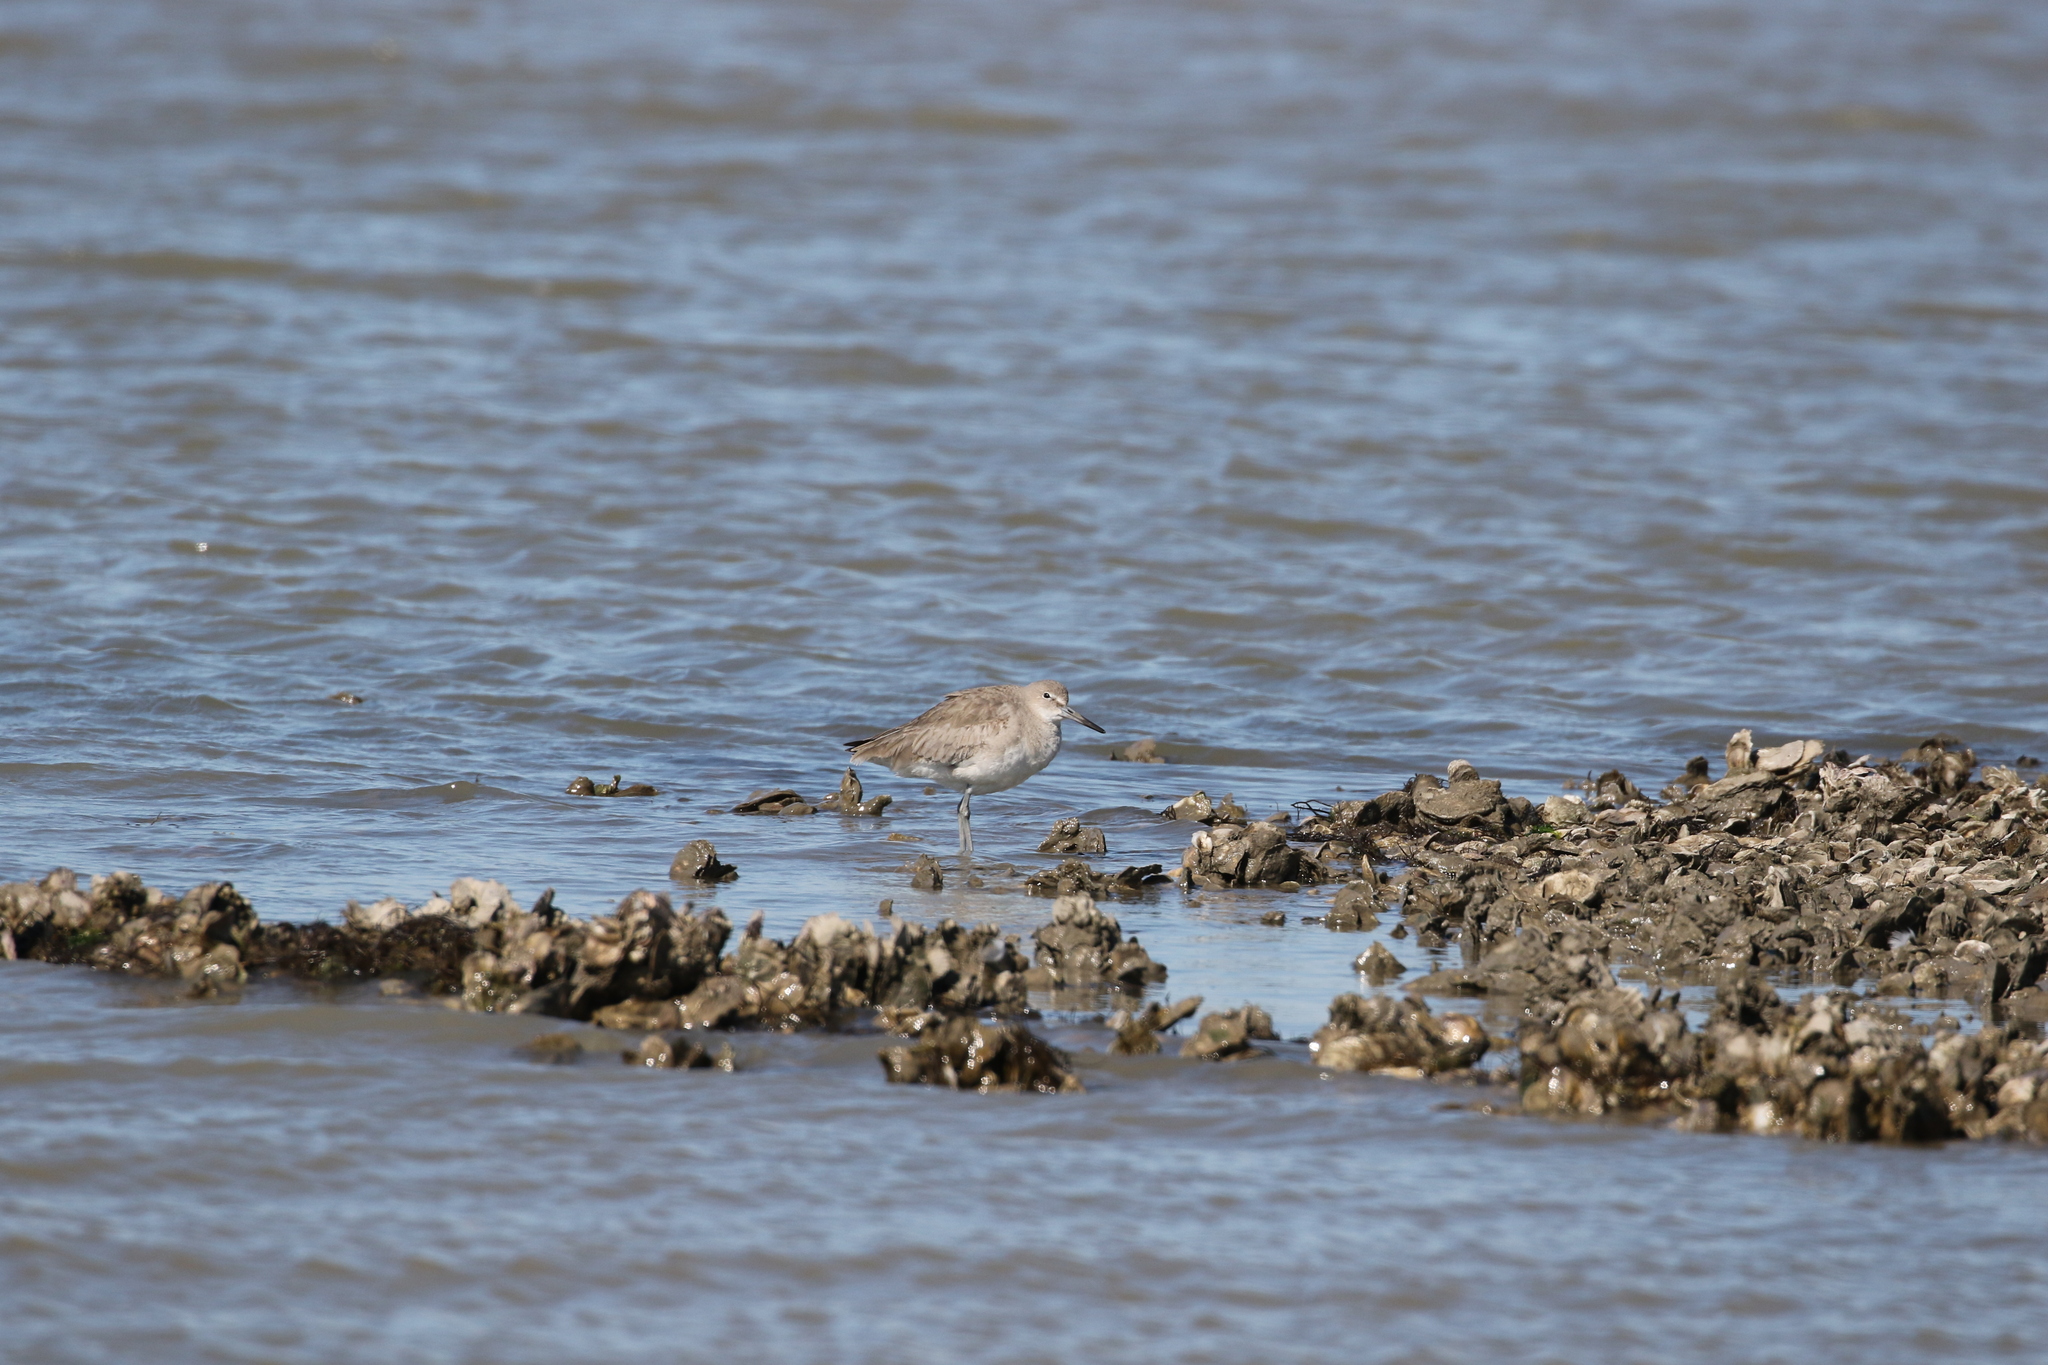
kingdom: Animalia
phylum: Chordata
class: Aves
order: Charadriiformes
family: Scolopacidae
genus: Tringa
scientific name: Tringa semipalmata
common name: Willet
